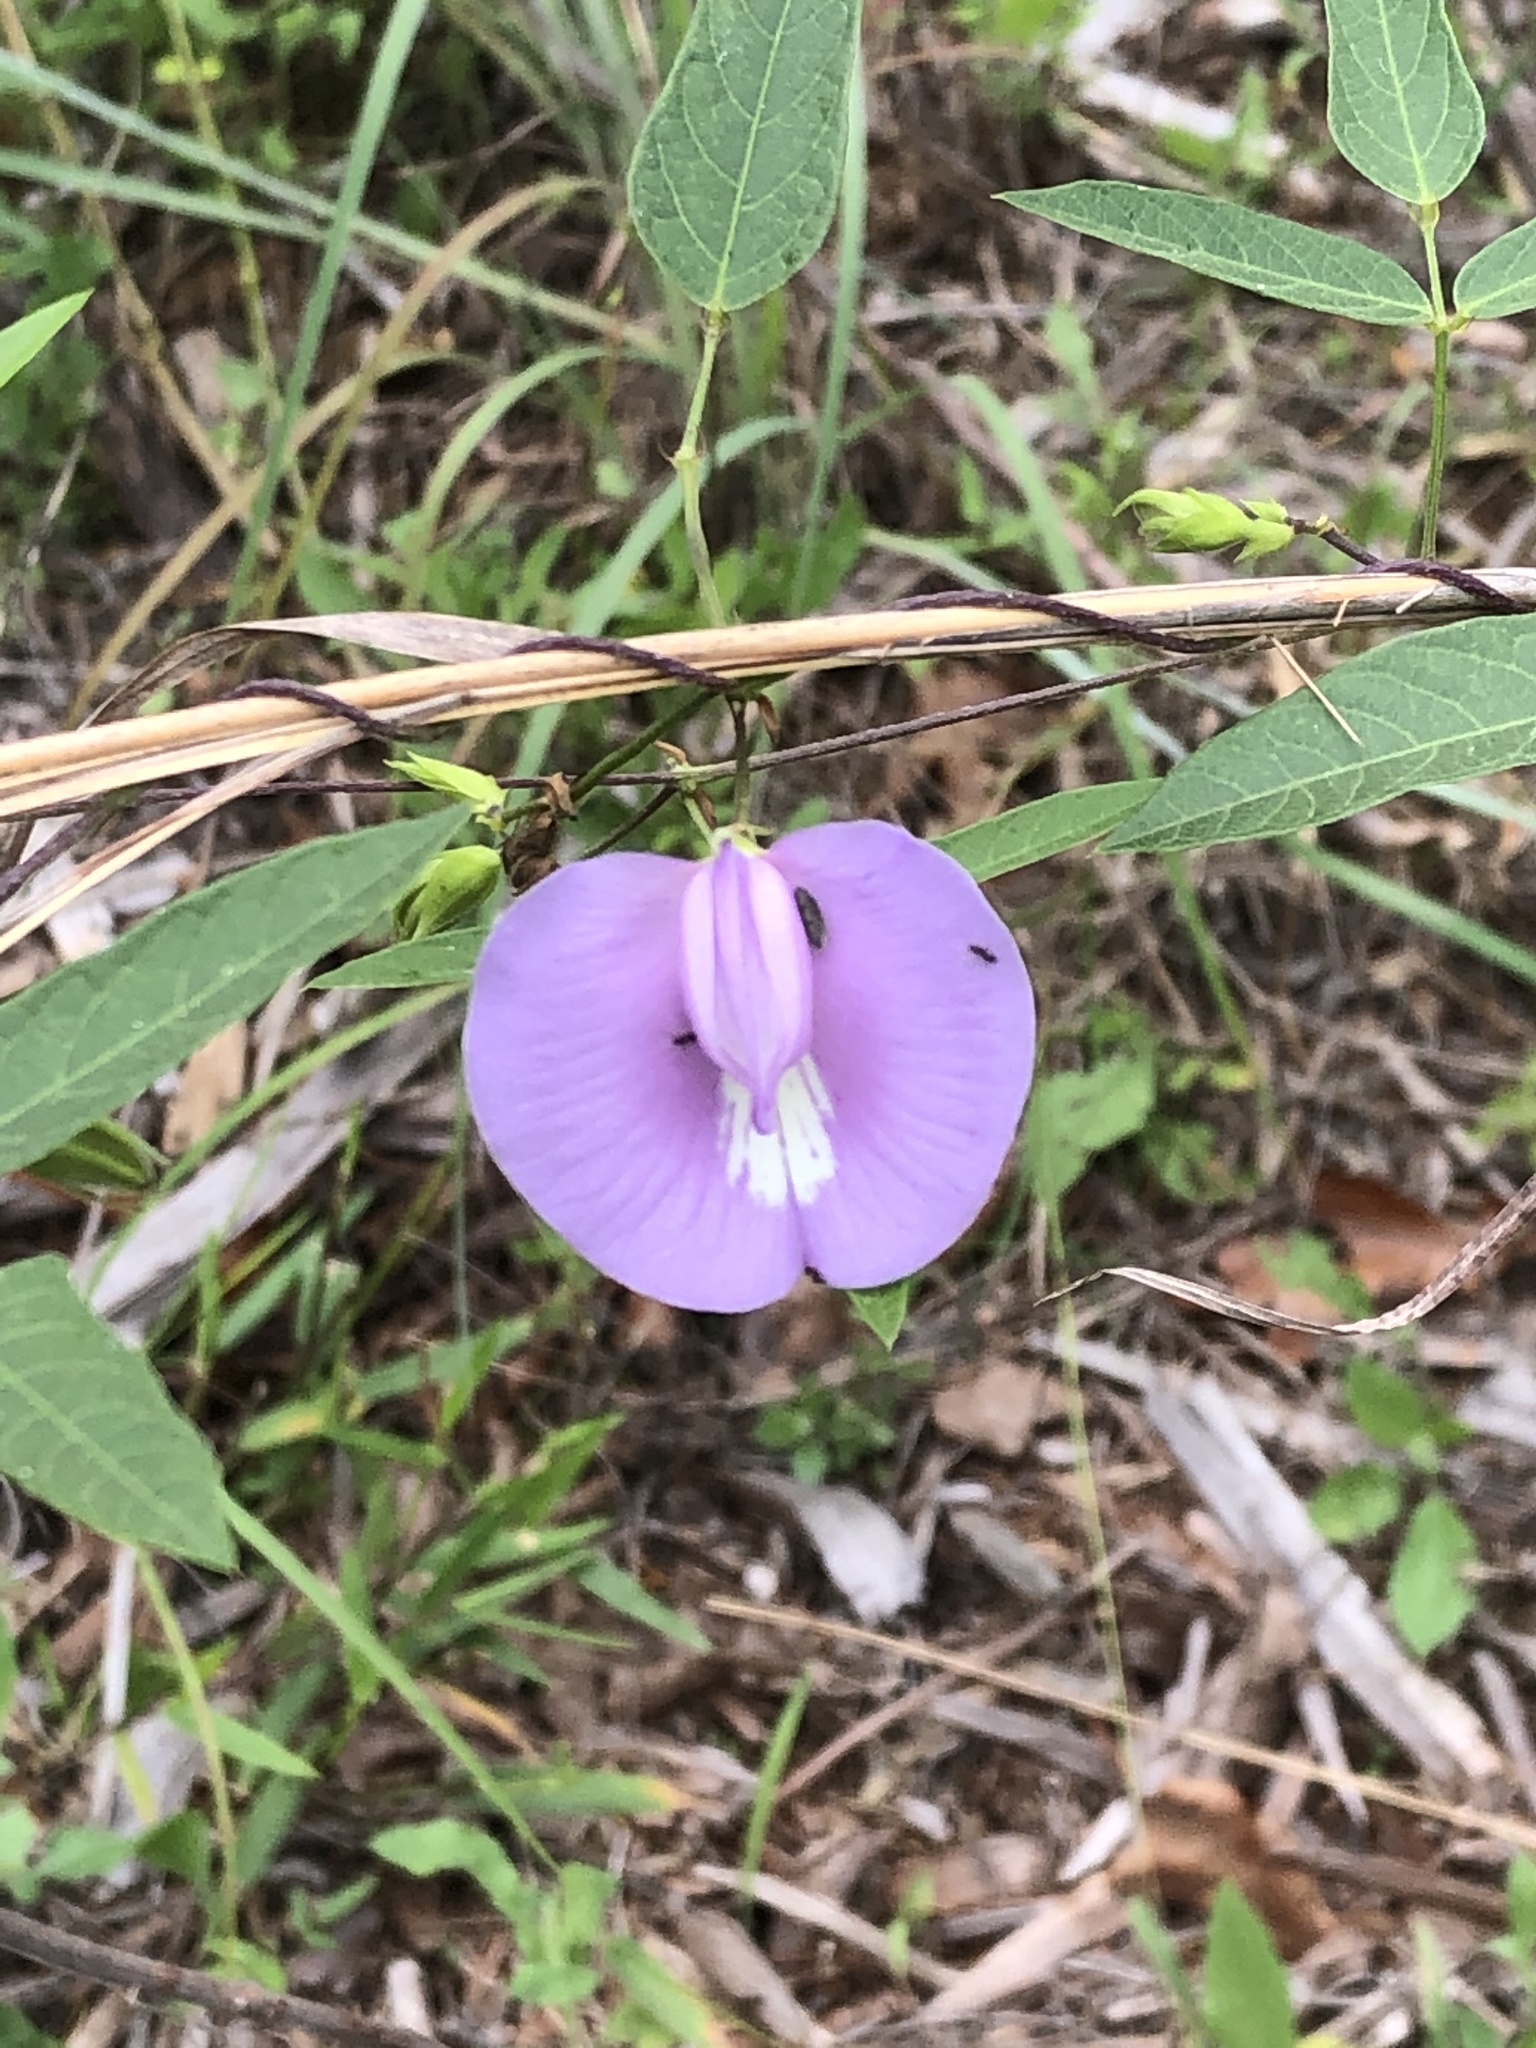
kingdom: Plantae
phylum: Tracheophyta
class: Magnoliopsida
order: Fabales
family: Fabaceae
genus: Centrosema
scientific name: Centrosema virginianum
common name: Butterfly-pea
